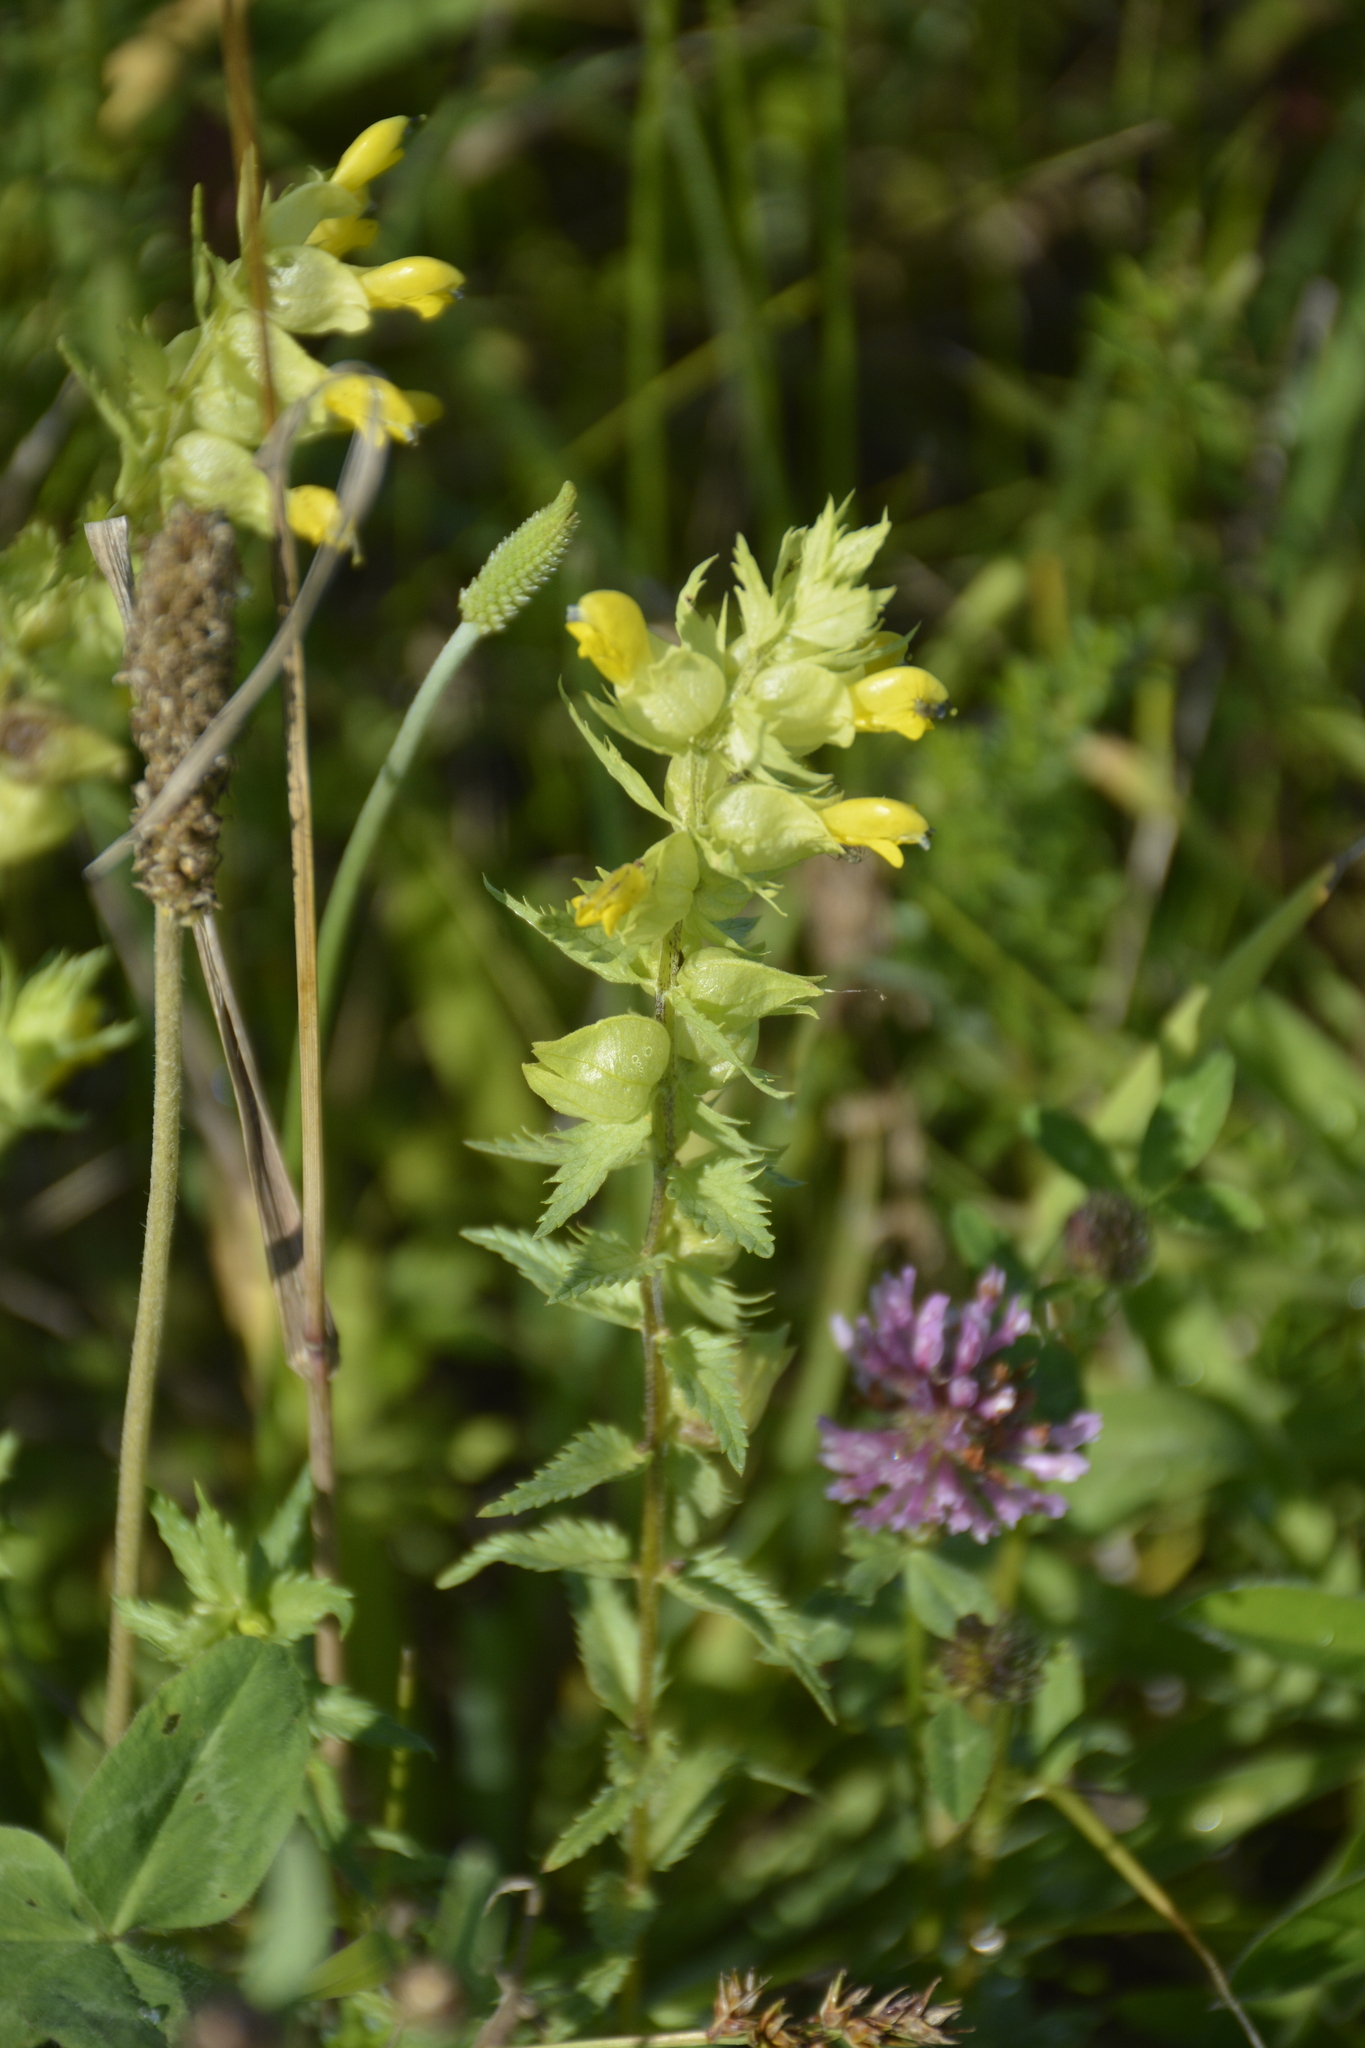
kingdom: Plantae
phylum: Tracheophyta
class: Magnoliopsida
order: Lamiales
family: Orobanchaceae
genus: Rhinanthus
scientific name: Rhinanthus serotinus
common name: Late-flowering yellow rattle
